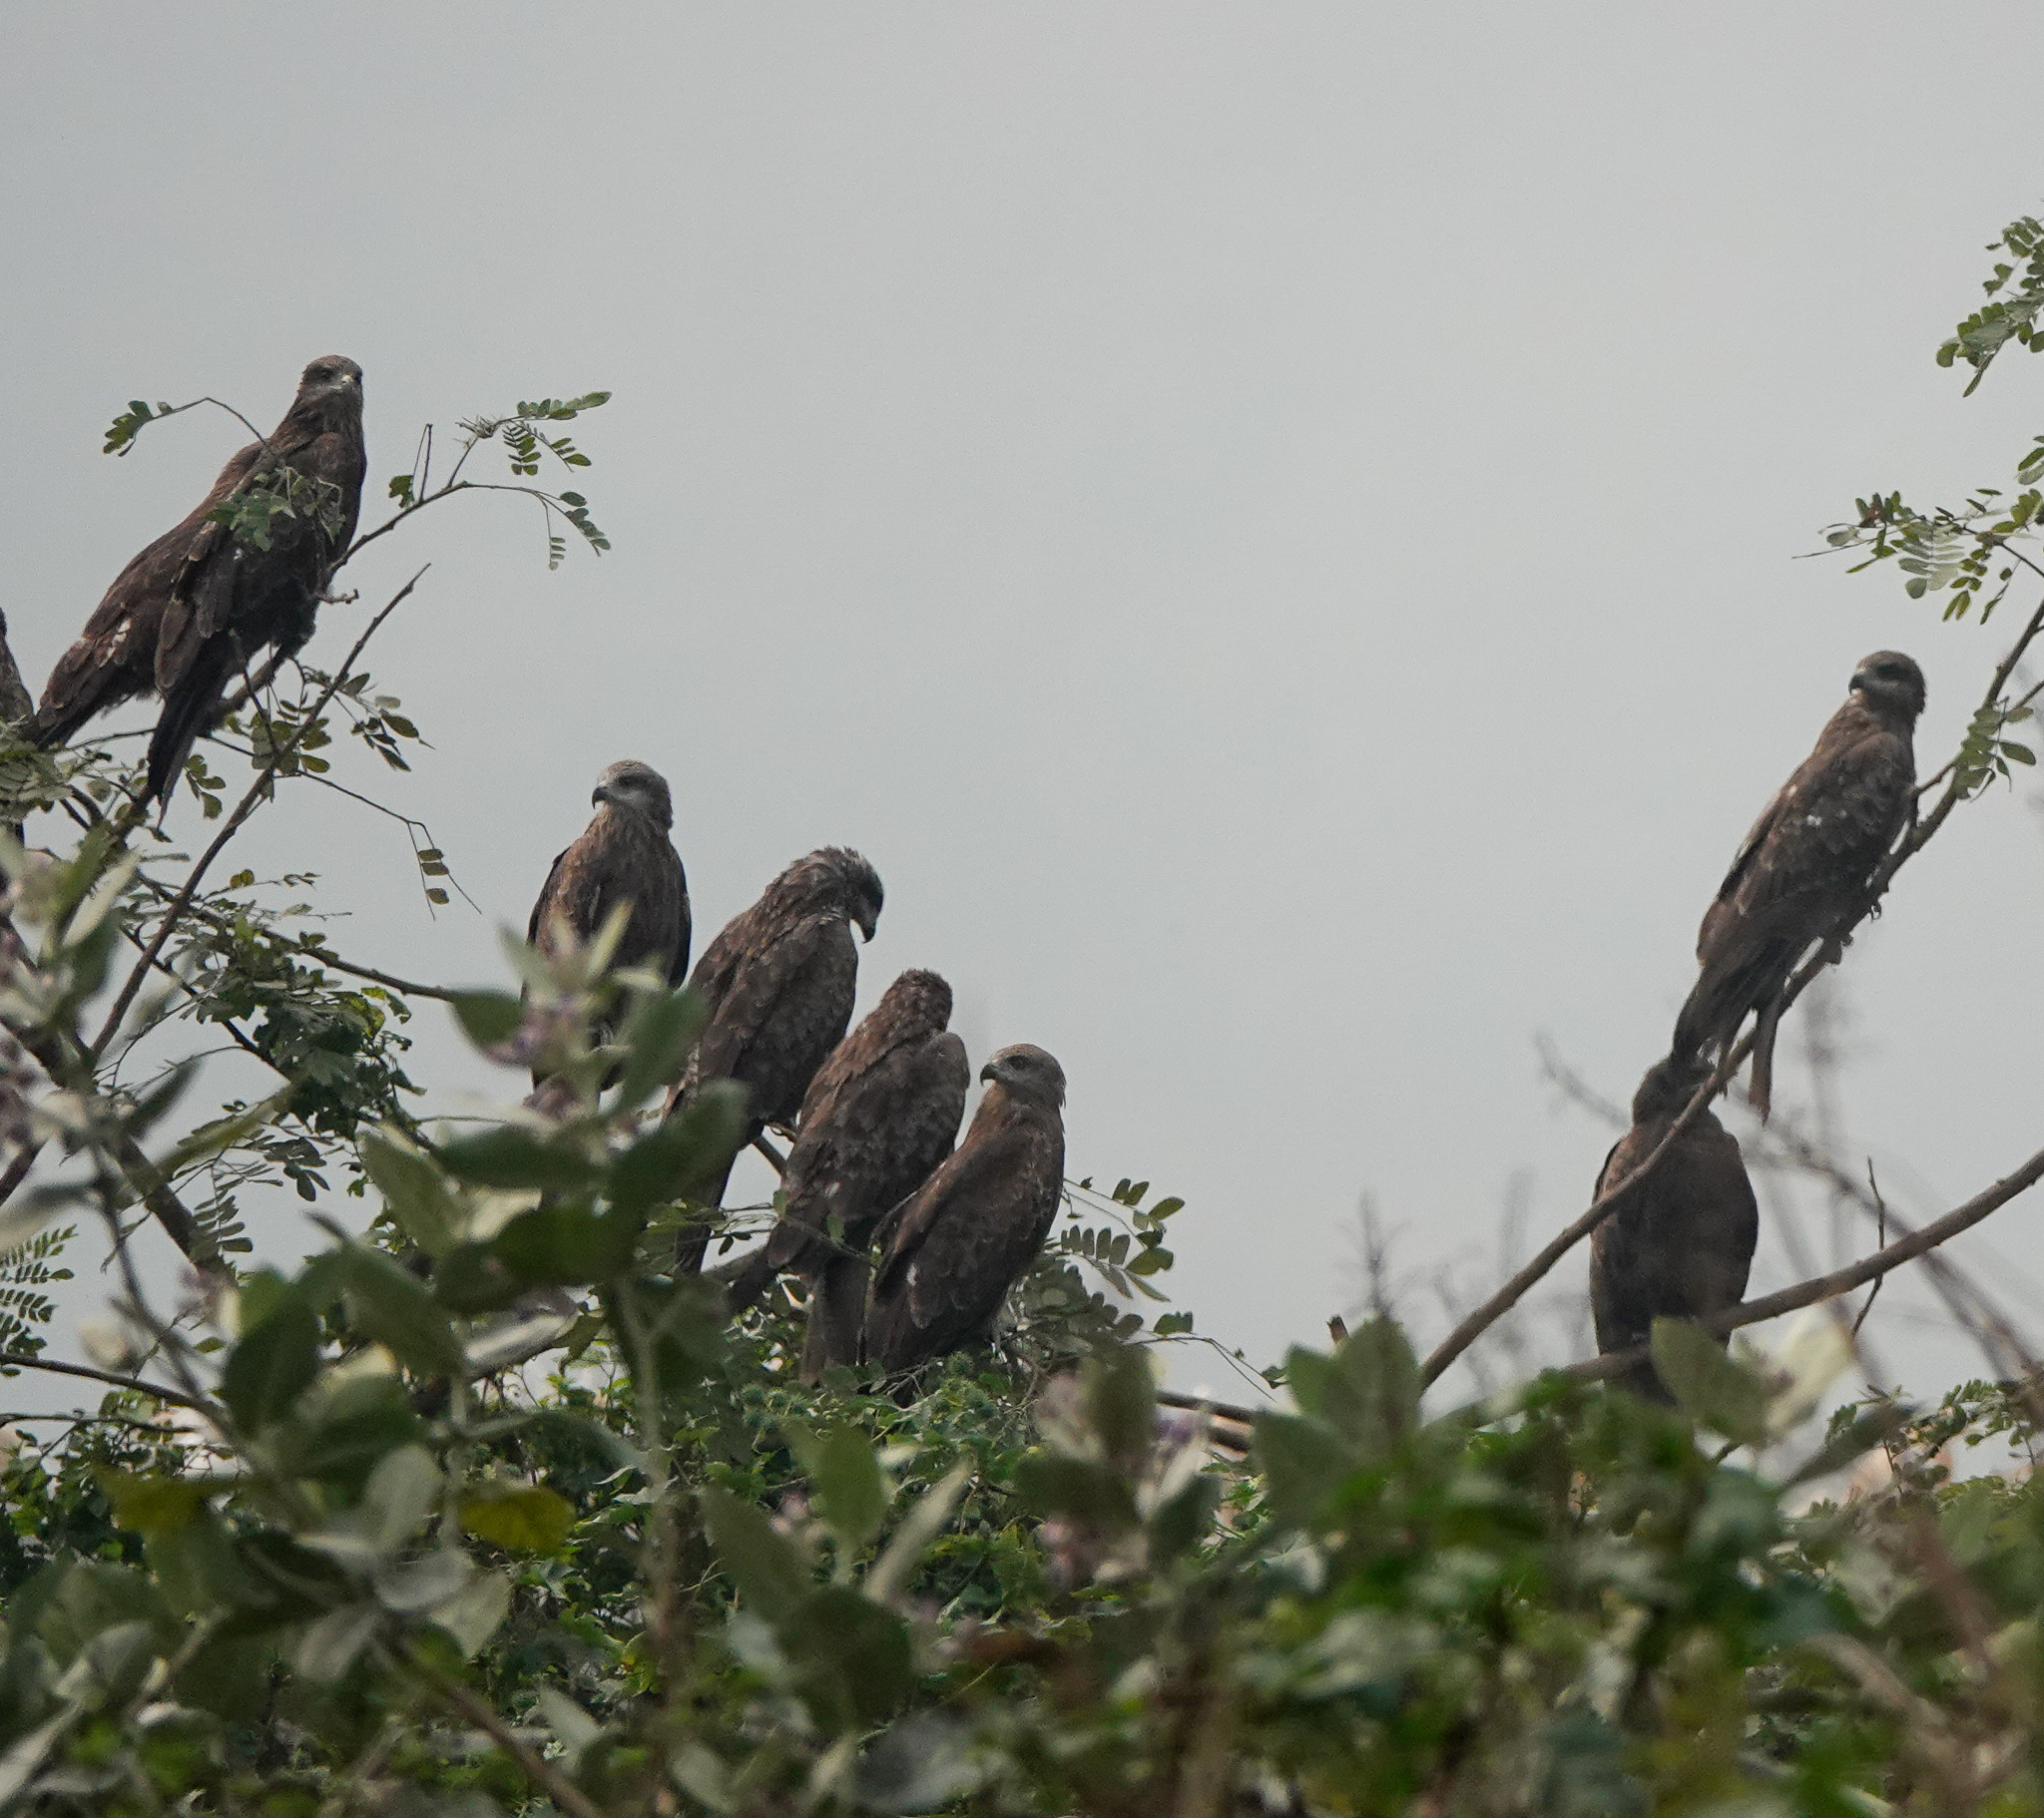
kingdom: Animalia
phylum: Chordata
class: Aves
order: Accipitriformes
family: Accipitridae
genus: Milvus
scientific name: Milvus migrans
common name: Black kite
